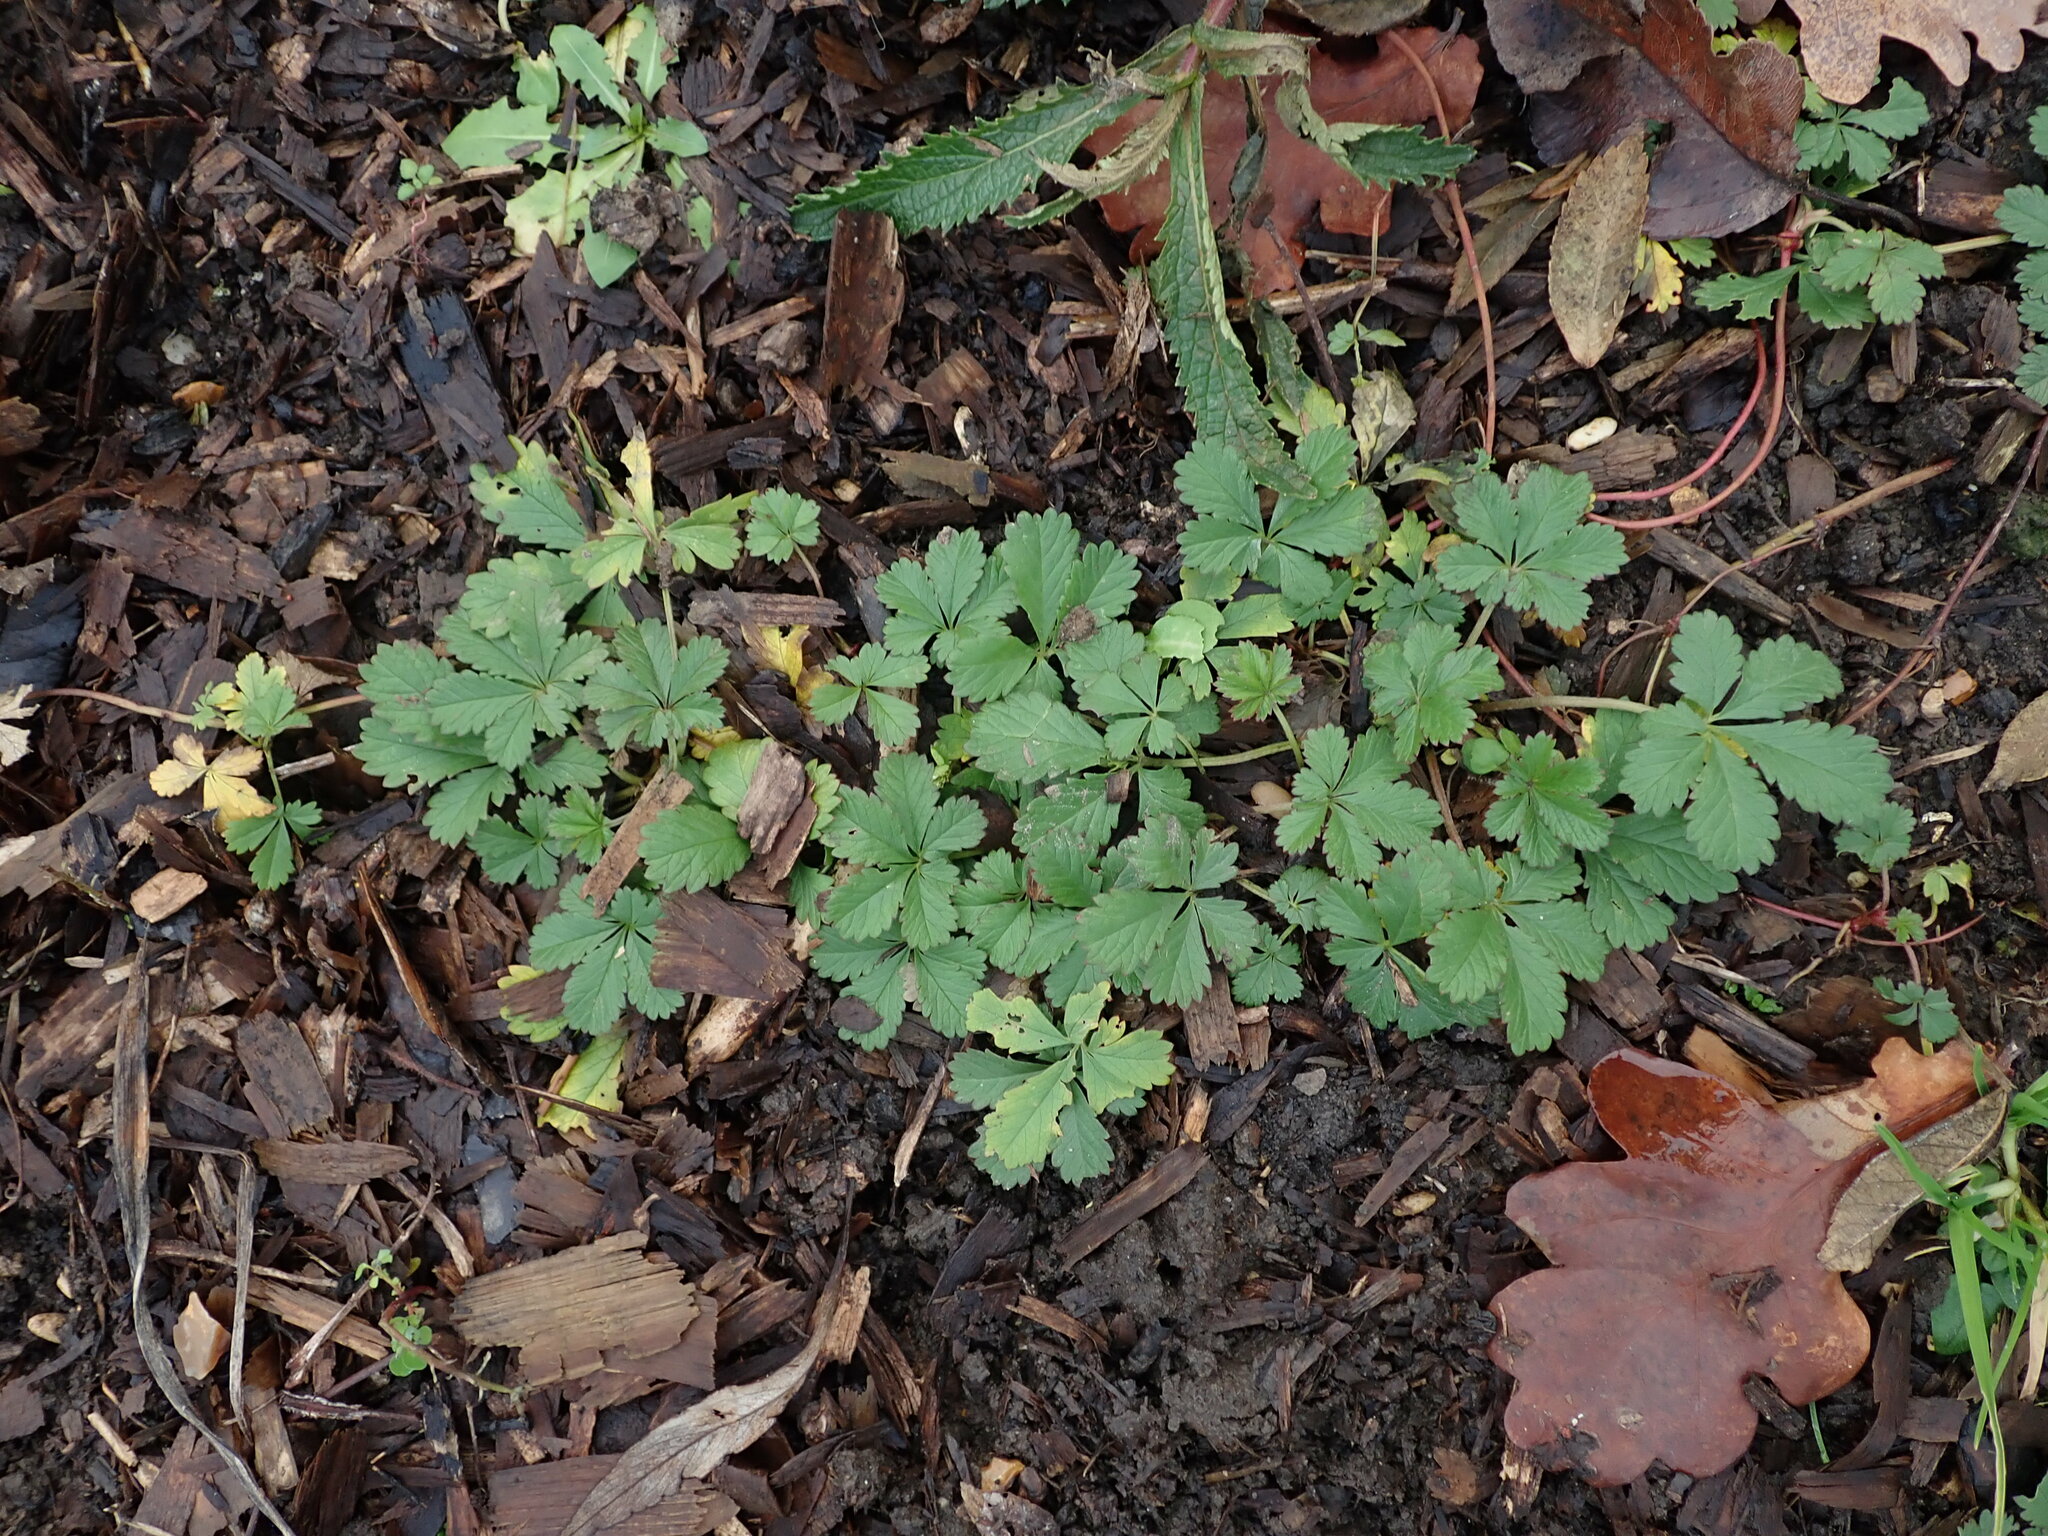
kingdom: Plantae
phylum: Tracheophyta
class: Magnoliopsida
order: Rosales
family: Rosaceae
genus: Potentilla
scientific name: Potentilla reptans
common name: Creeping cinquefoil
